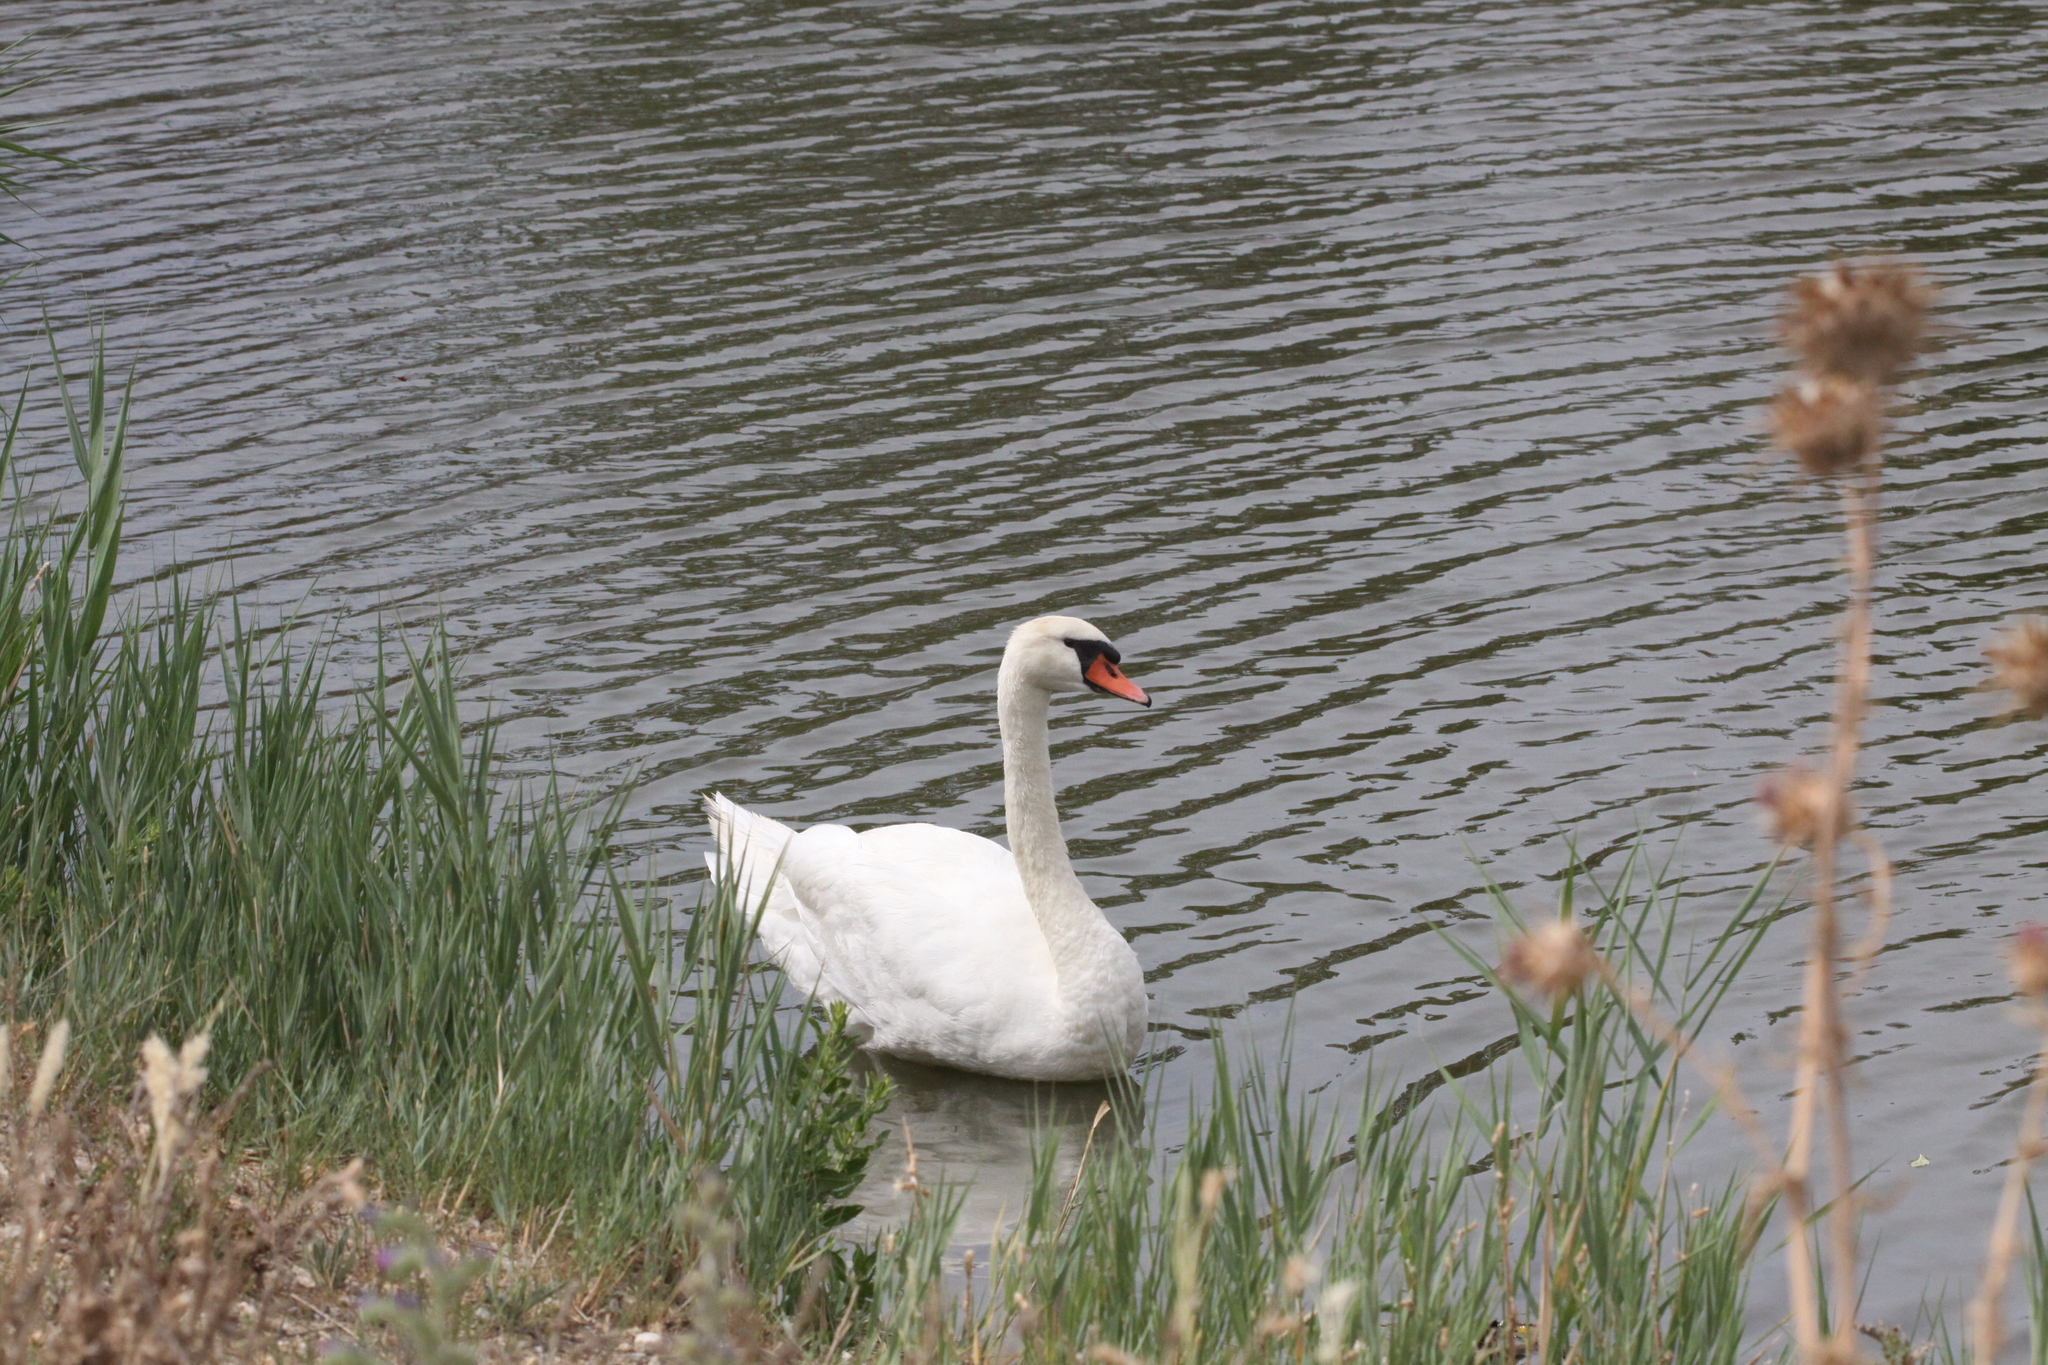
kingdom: Animalia
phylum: Chordata
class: Aves
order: Anseriformes
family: Anatidae
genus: Cygnus
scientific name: Cygnus olor
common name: Mute swan
